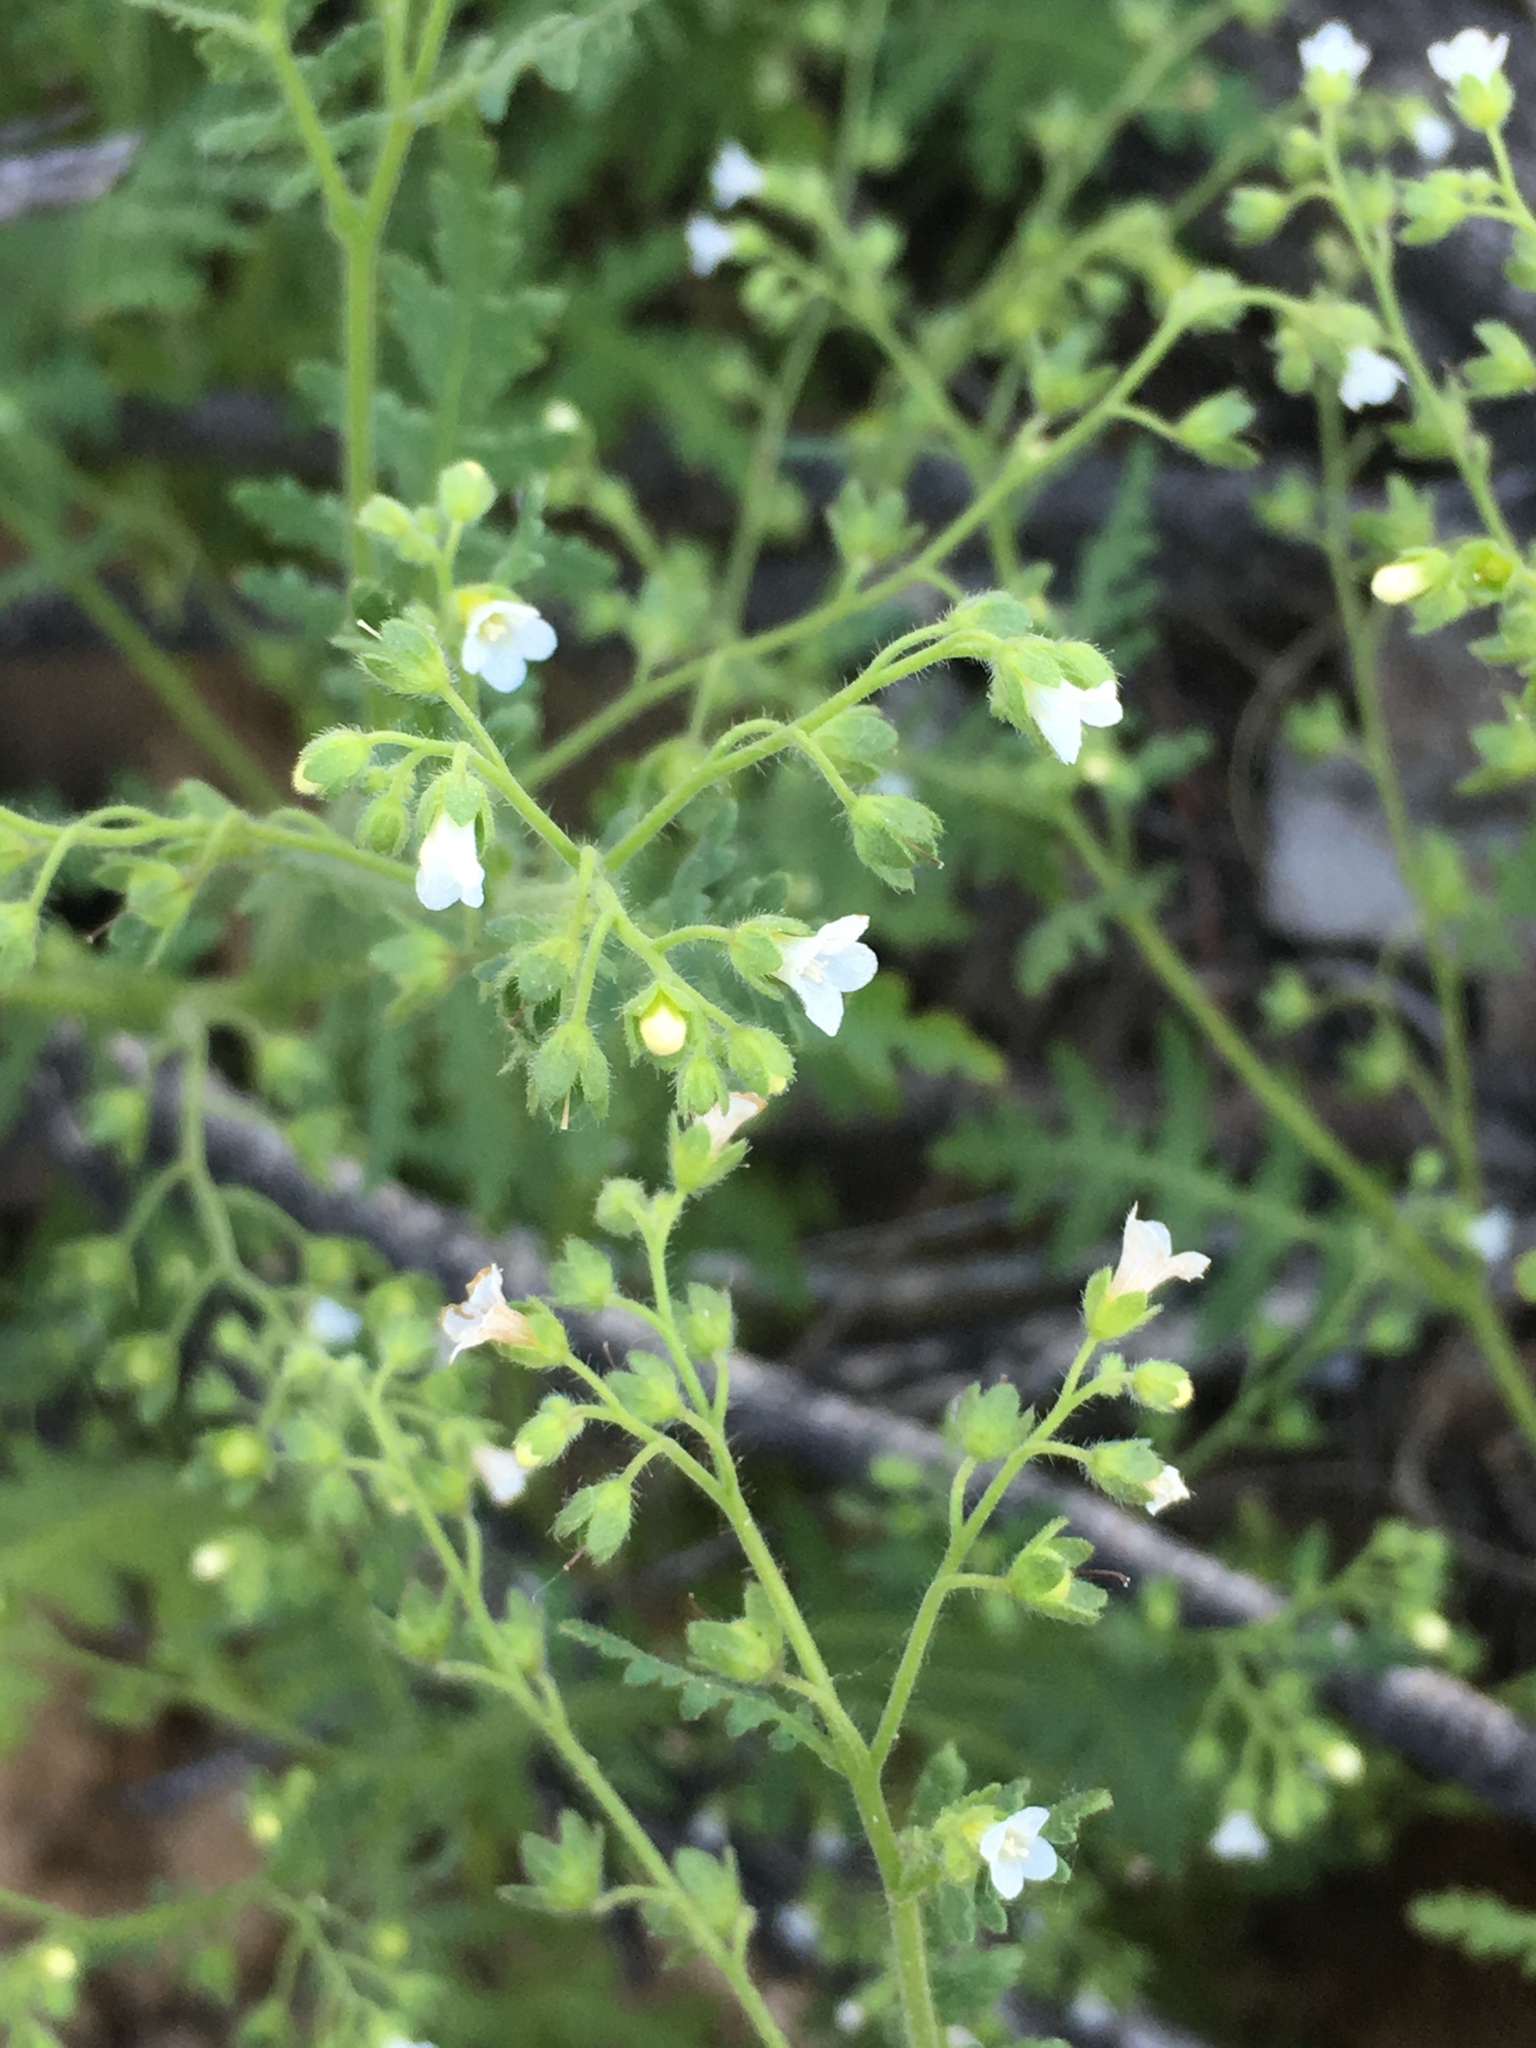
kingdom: Plantae
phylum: Tracheophyta
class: Magnoliopsida
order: Boraginales
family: Hydrophyllaceae
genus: Eucrypta
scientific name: Eucrypta chrysanthemifolia
